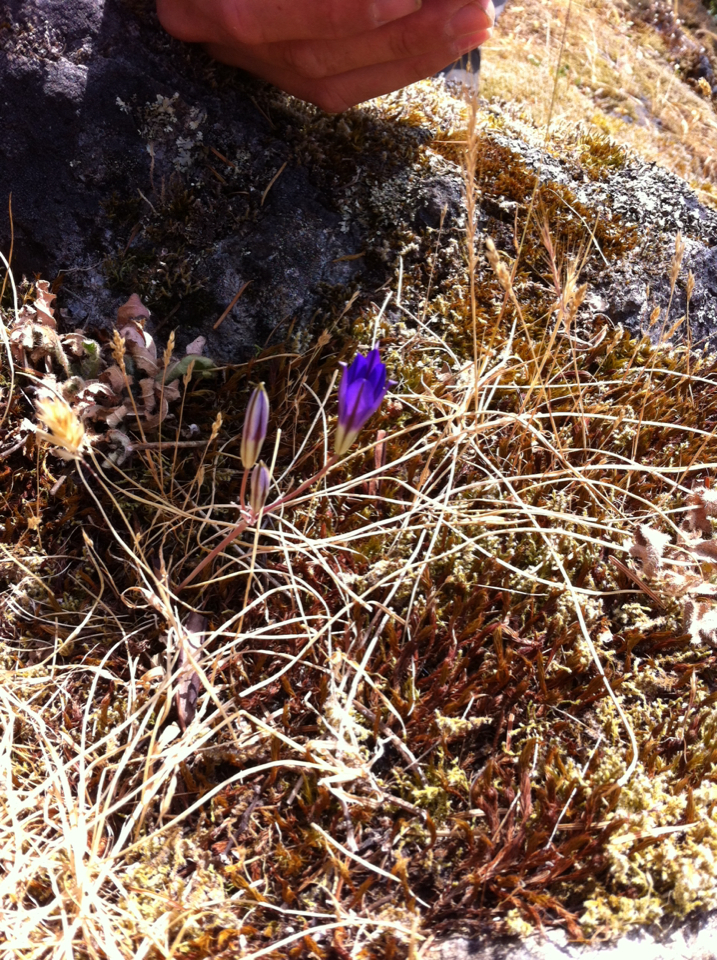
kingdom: Plantae
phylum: Tracheophyta
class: Liliopsida
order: Asparagales
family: Asparagaceae
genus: Brodiaea
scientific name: Brodiaea coronaria
